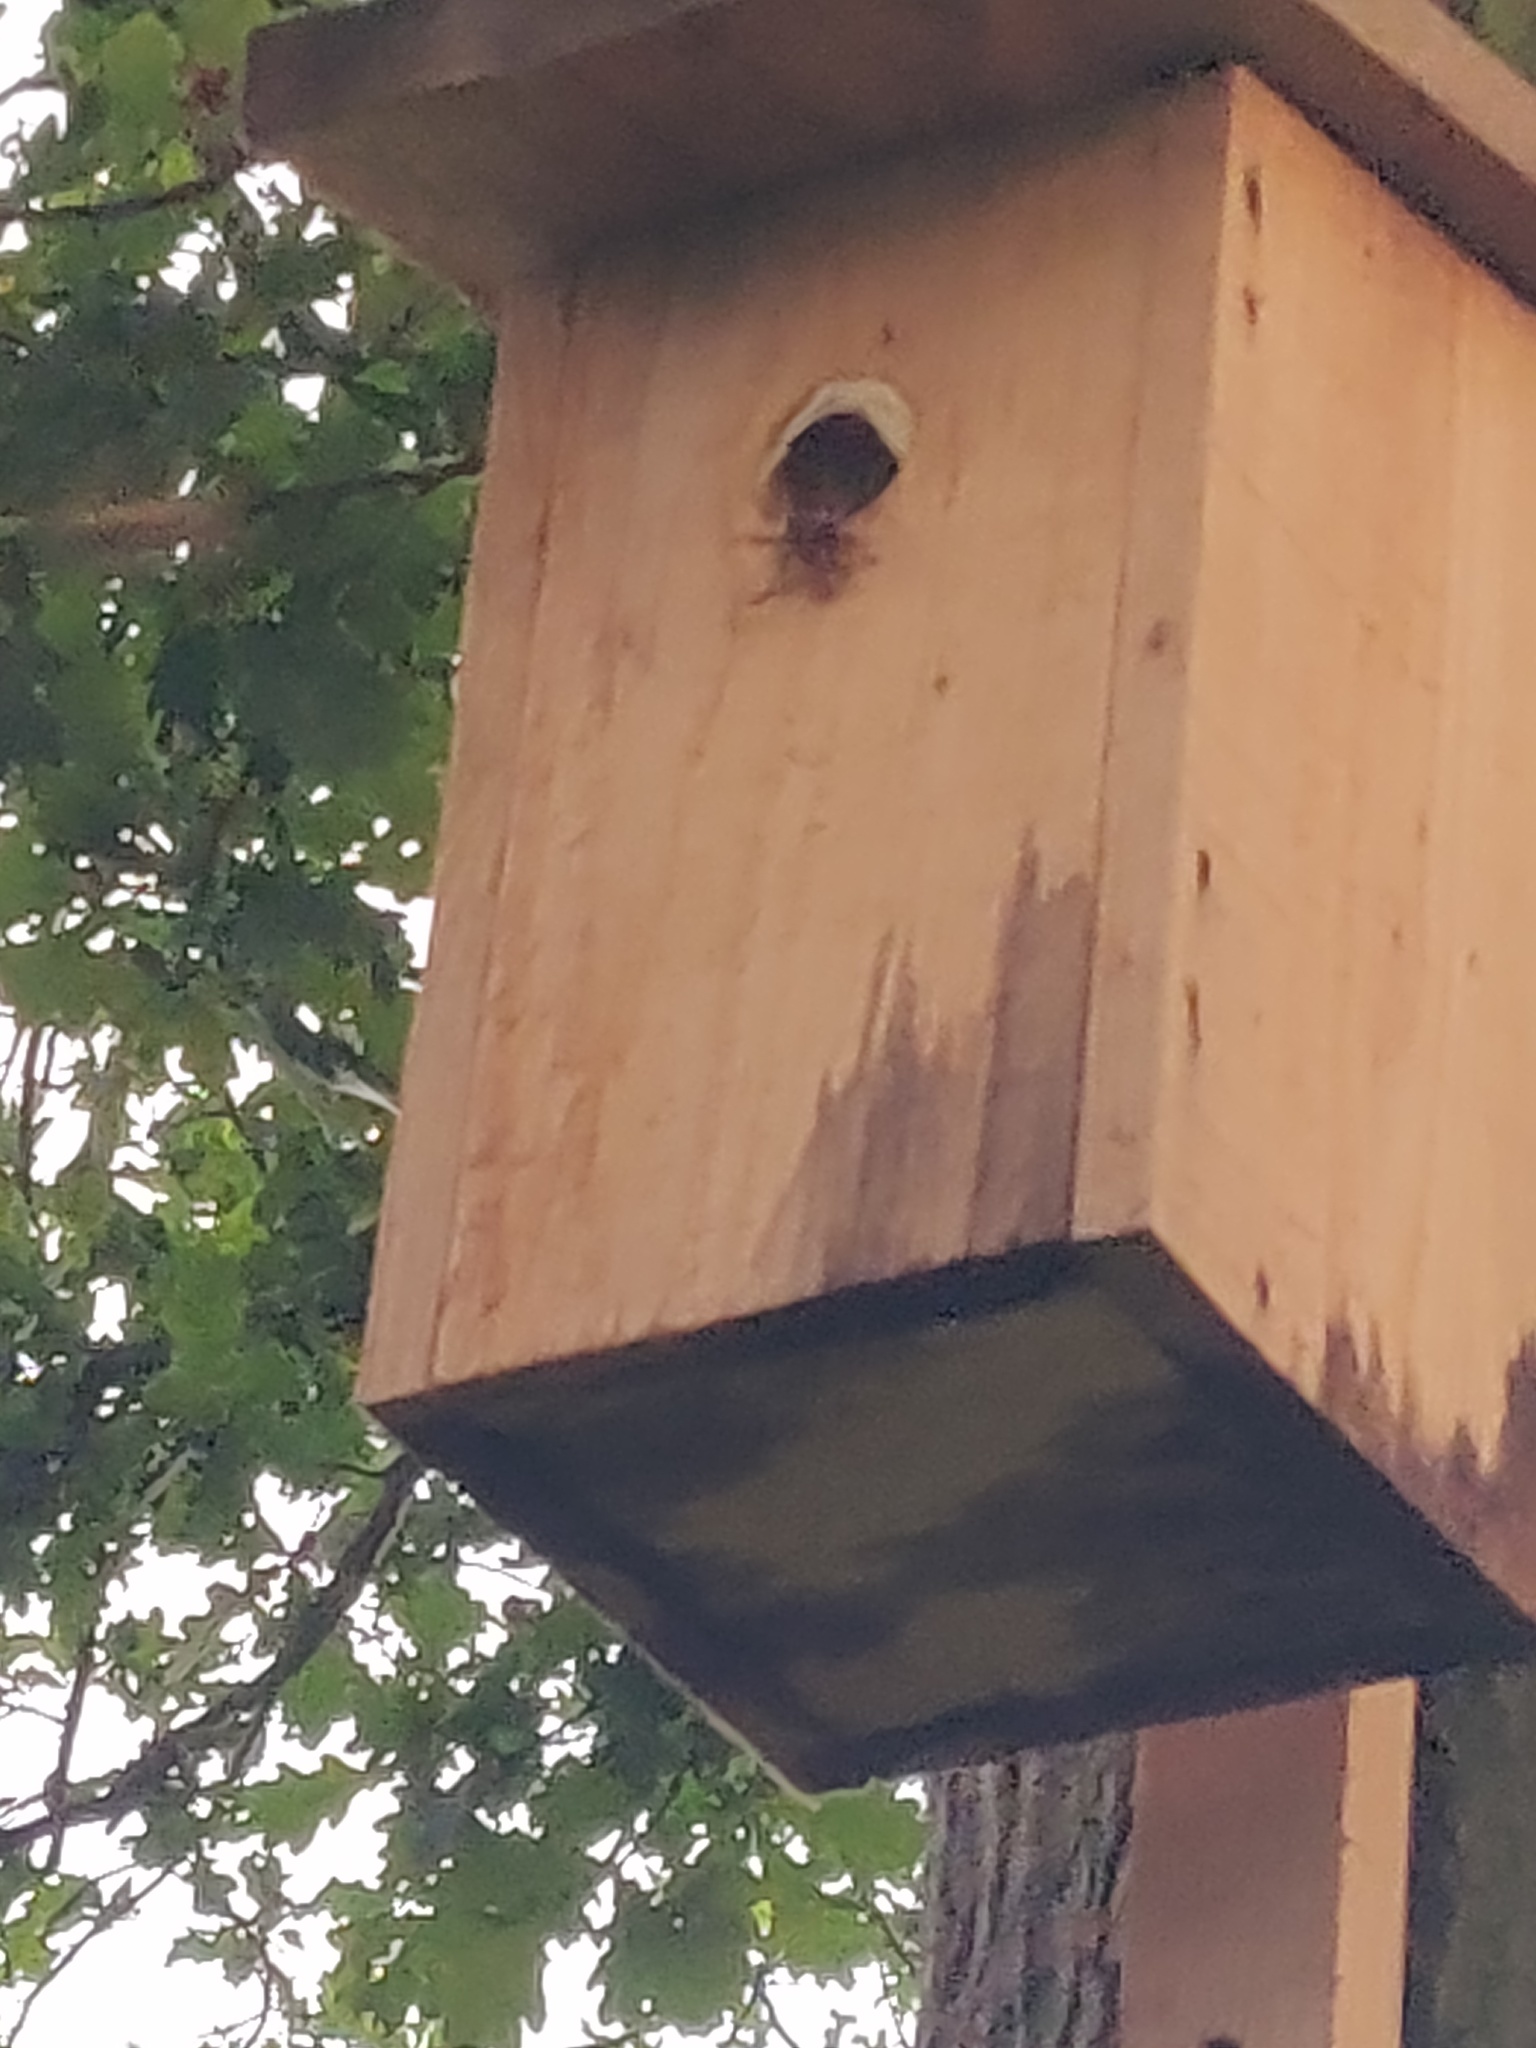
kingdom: Animalia
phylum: Arthropoda
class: Insecta
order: Hymenoptera
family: Vespidae
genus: Vespa
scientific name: Vespa crabro
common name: Hornet
